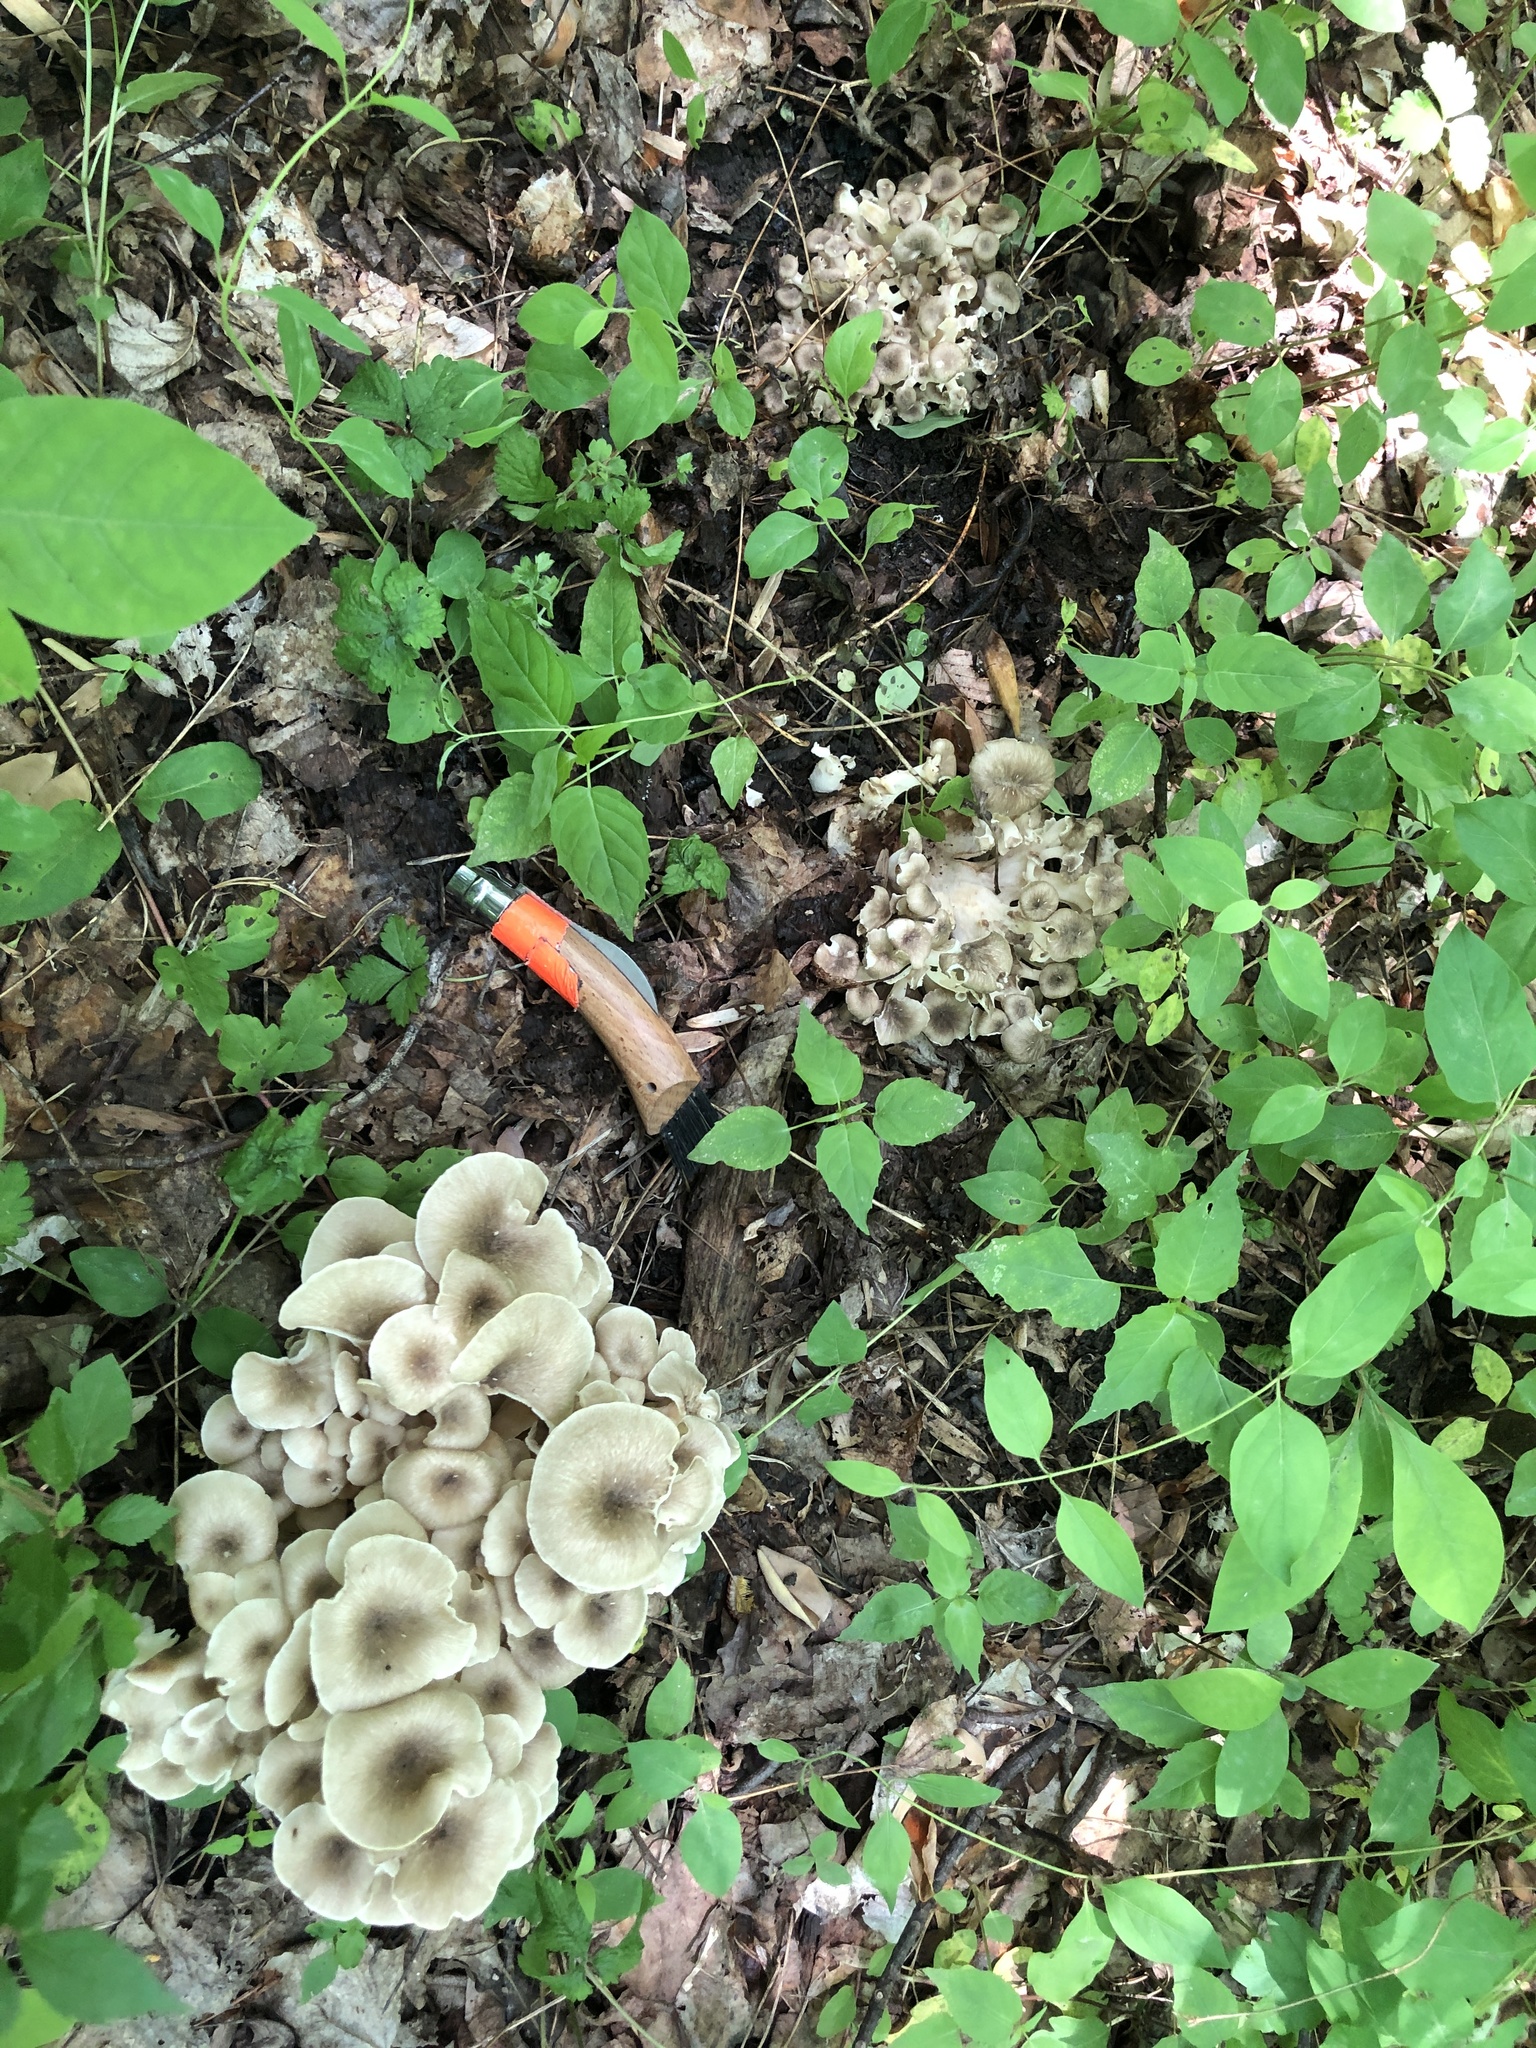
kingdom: Fungi
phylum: Basidiomycota
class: Agaricomycetes
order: Polyporales
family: Polyporaceae
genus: Polyporus
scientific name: Polyporus umbellatus
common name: Umbrella polypore
